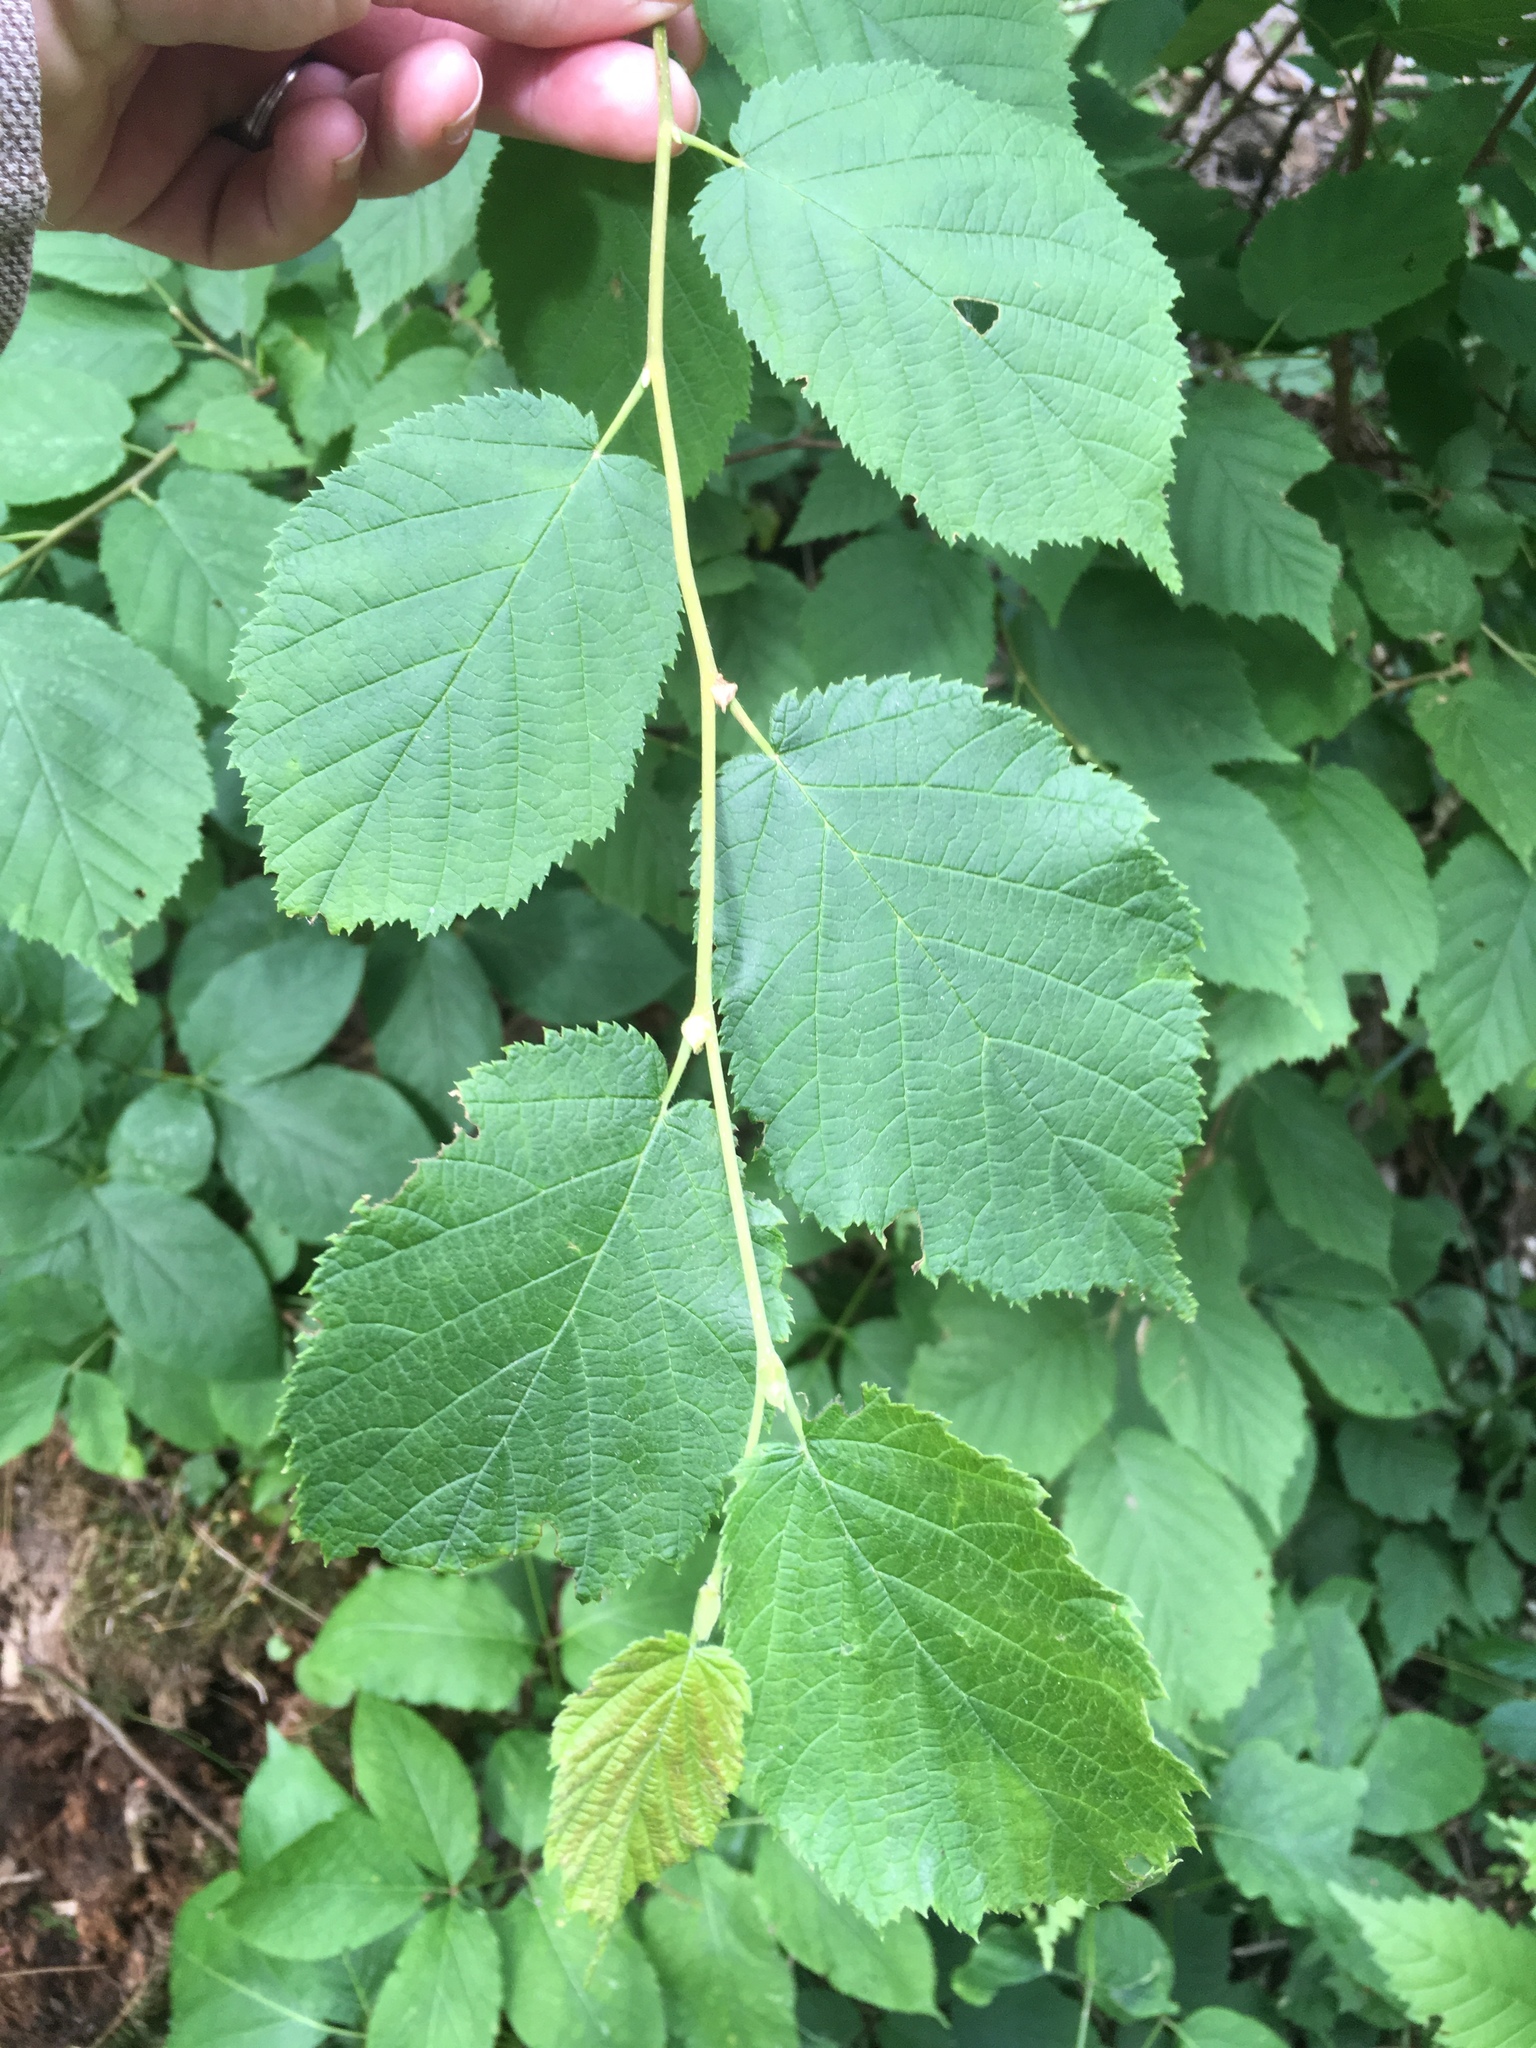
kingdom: Plantae
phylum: Tracheophyta
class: Magnoliopsida
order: Fagales
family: Betulaceae
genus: Corylus
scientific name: Corylus cornuta
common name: Beaked hazel
